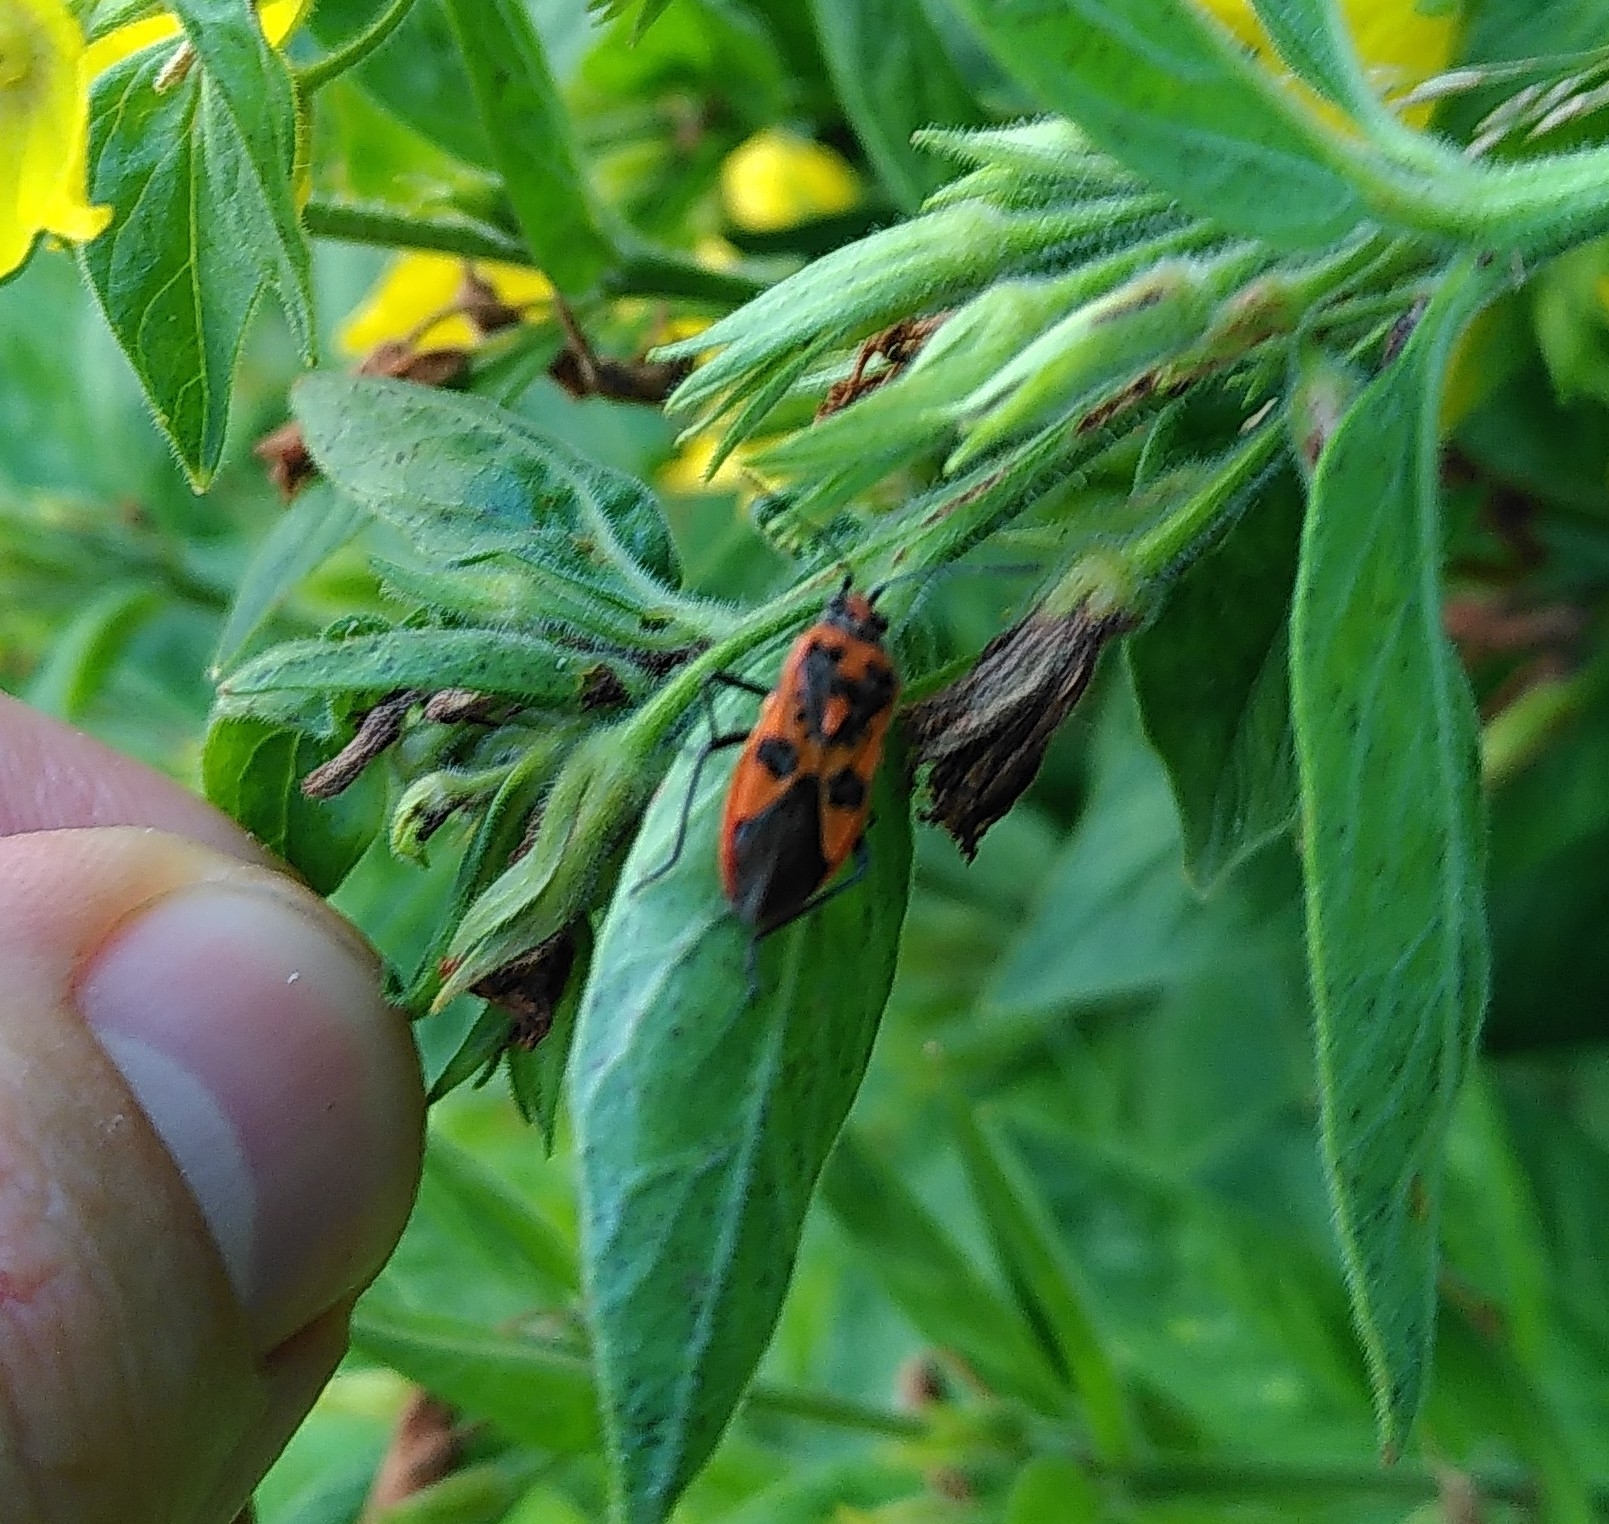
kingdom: Animalia
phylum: Arthropoda
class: Insecta
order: Hemiptera
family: Rhopalidae
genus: Corizus
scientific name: Corizus hyoscyami
